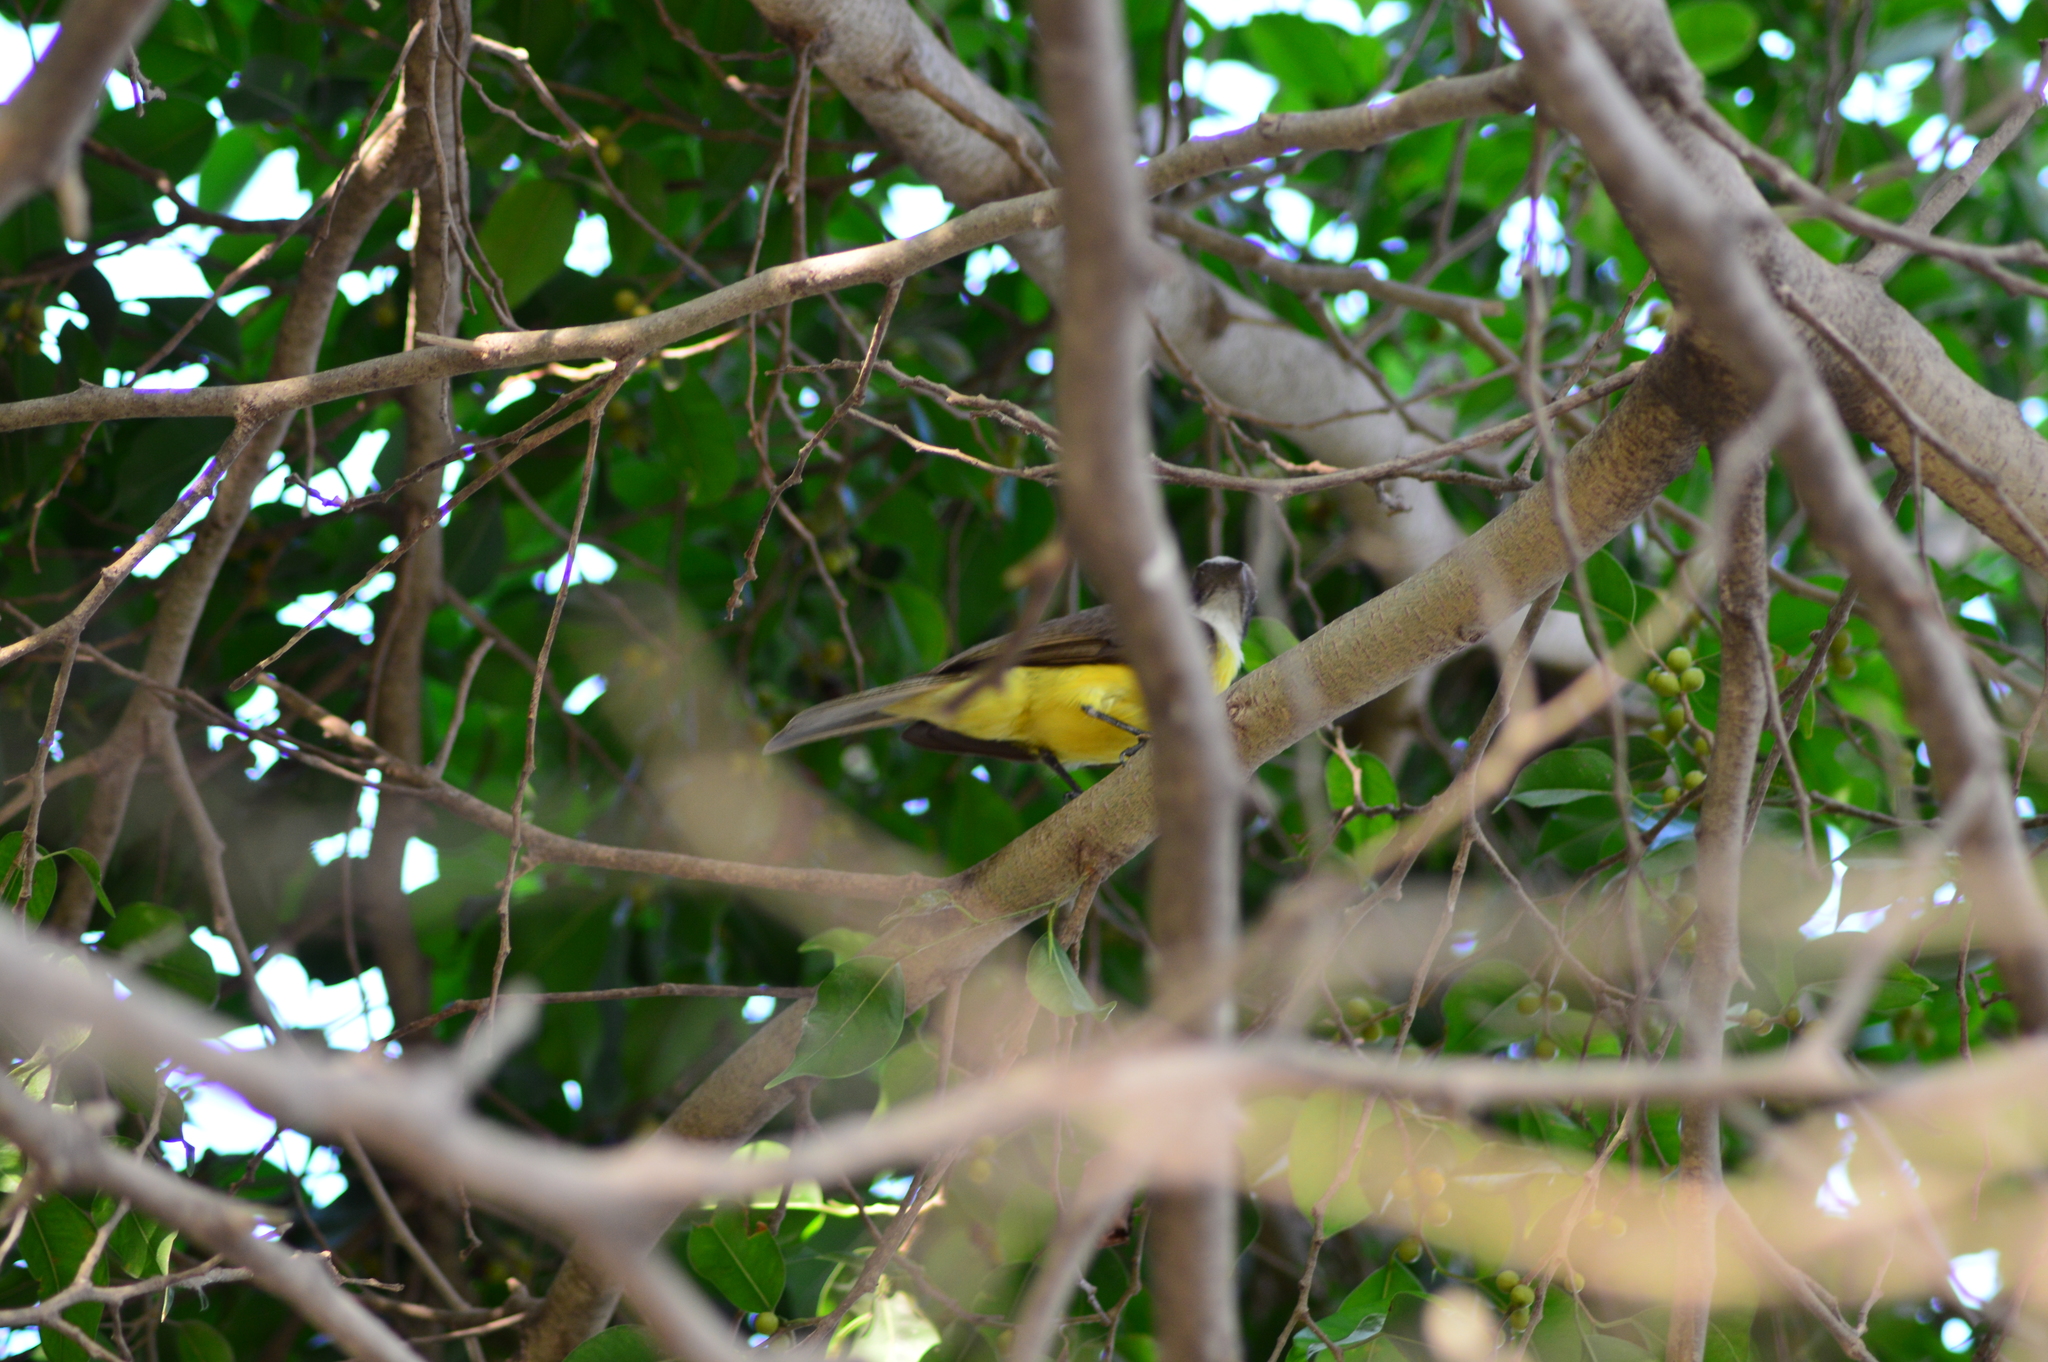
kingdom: Animalia
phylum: Chordata
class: Aves
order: Passeriformes
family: Tyrannidae
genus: Myiozetetes
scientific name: Myiozetetes similis
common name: Social flycatcher
